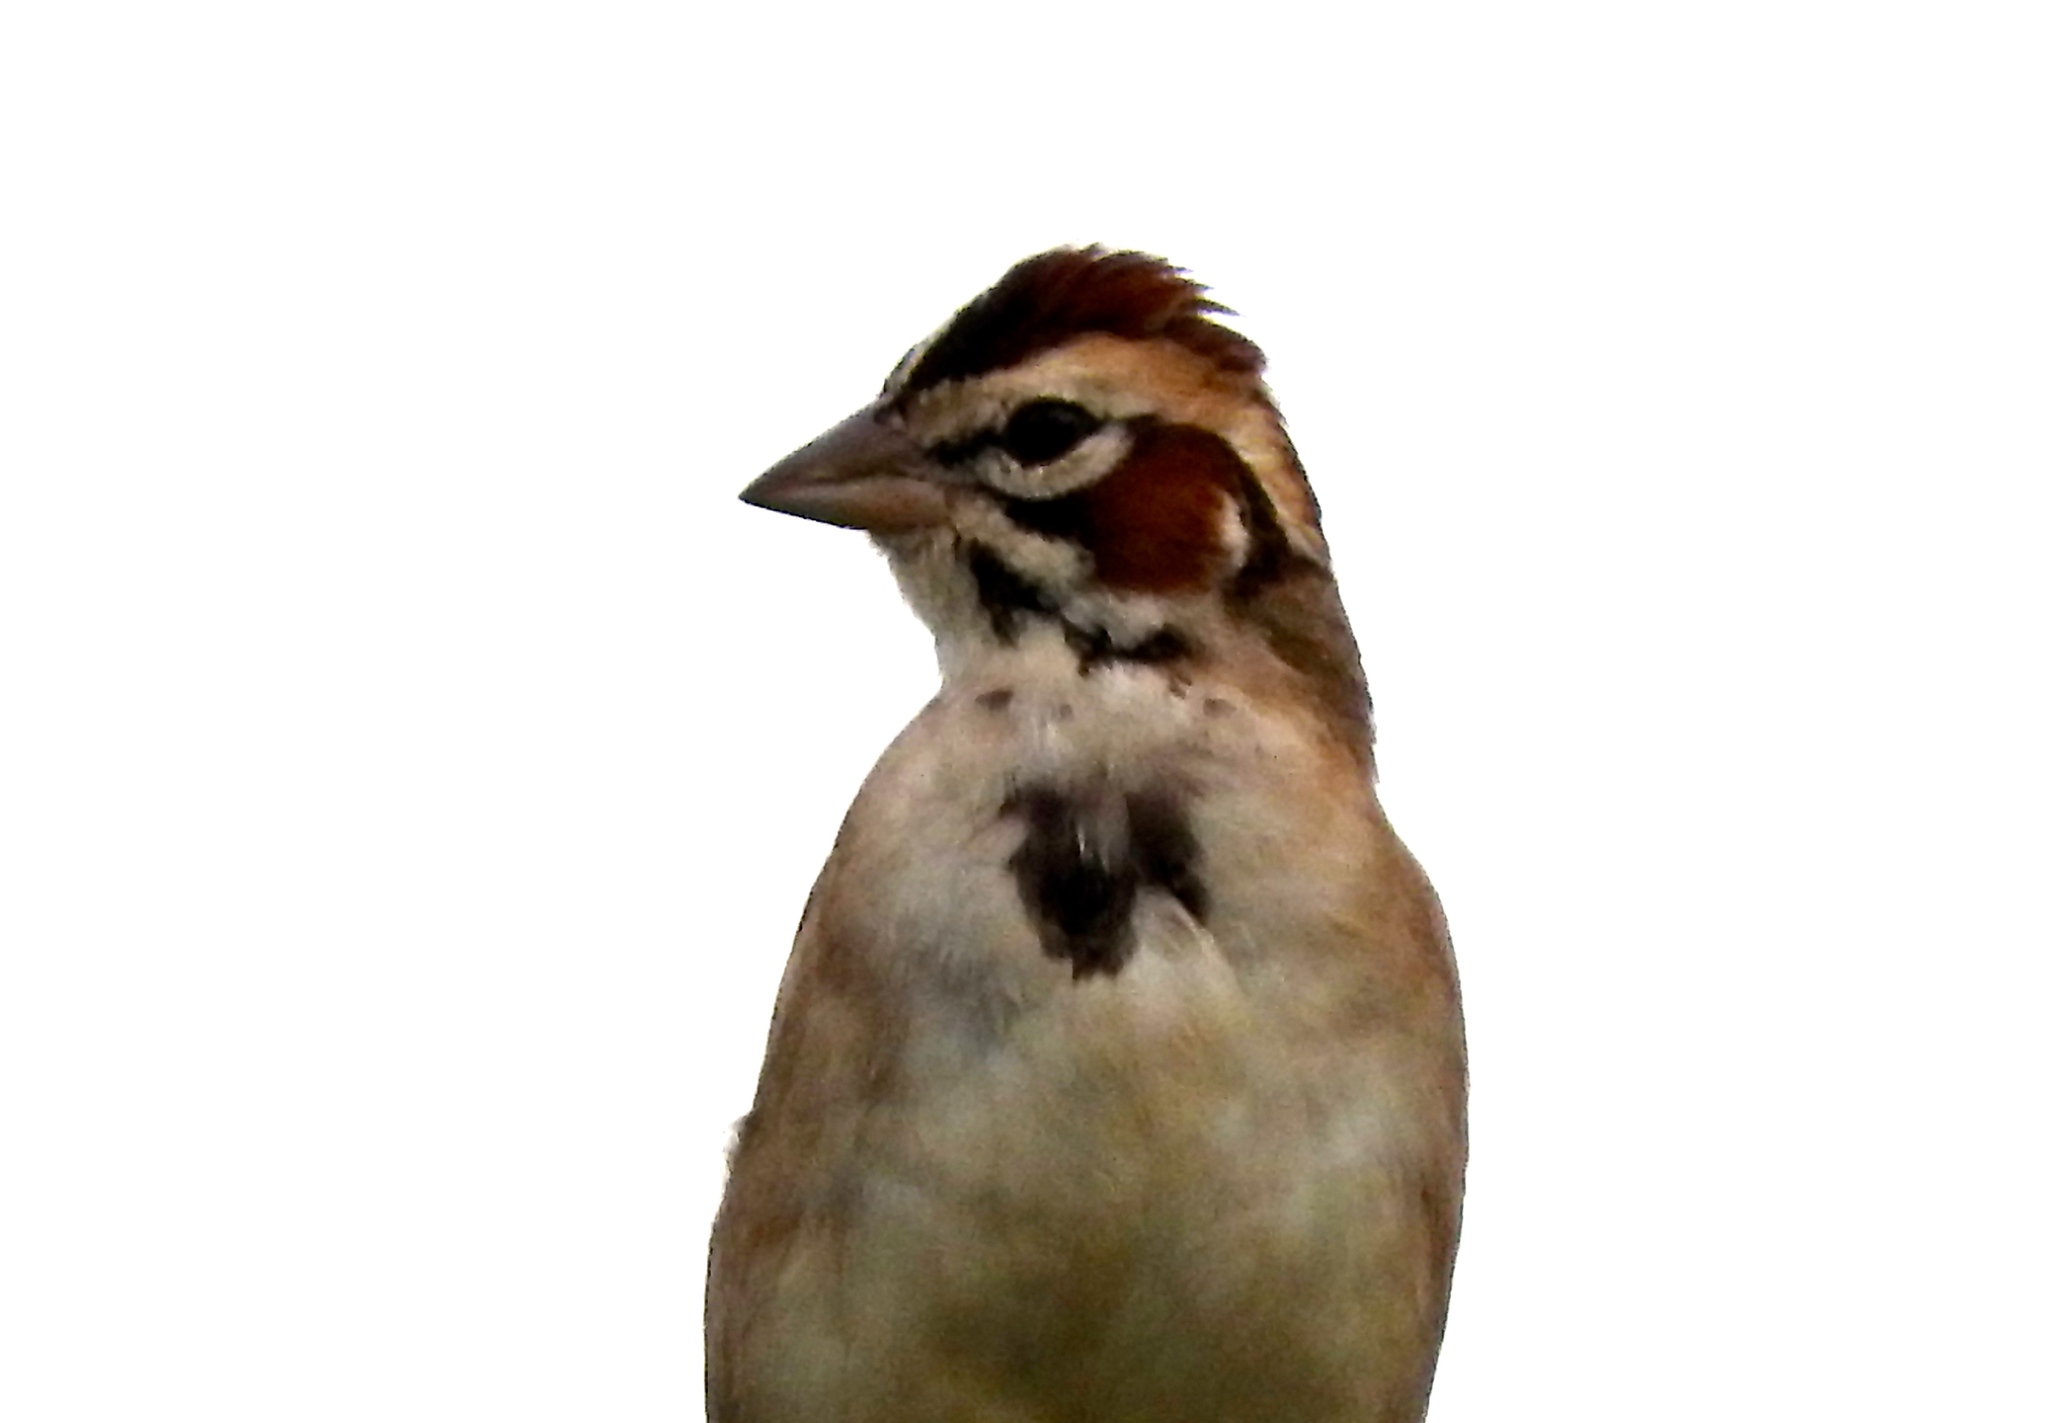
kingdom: Animalia
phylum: Chordata
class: Aves
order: Passeriformes
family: Passerellidae
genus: Chondestes
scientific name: Chondestes grammacus
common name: Lark sparrow
